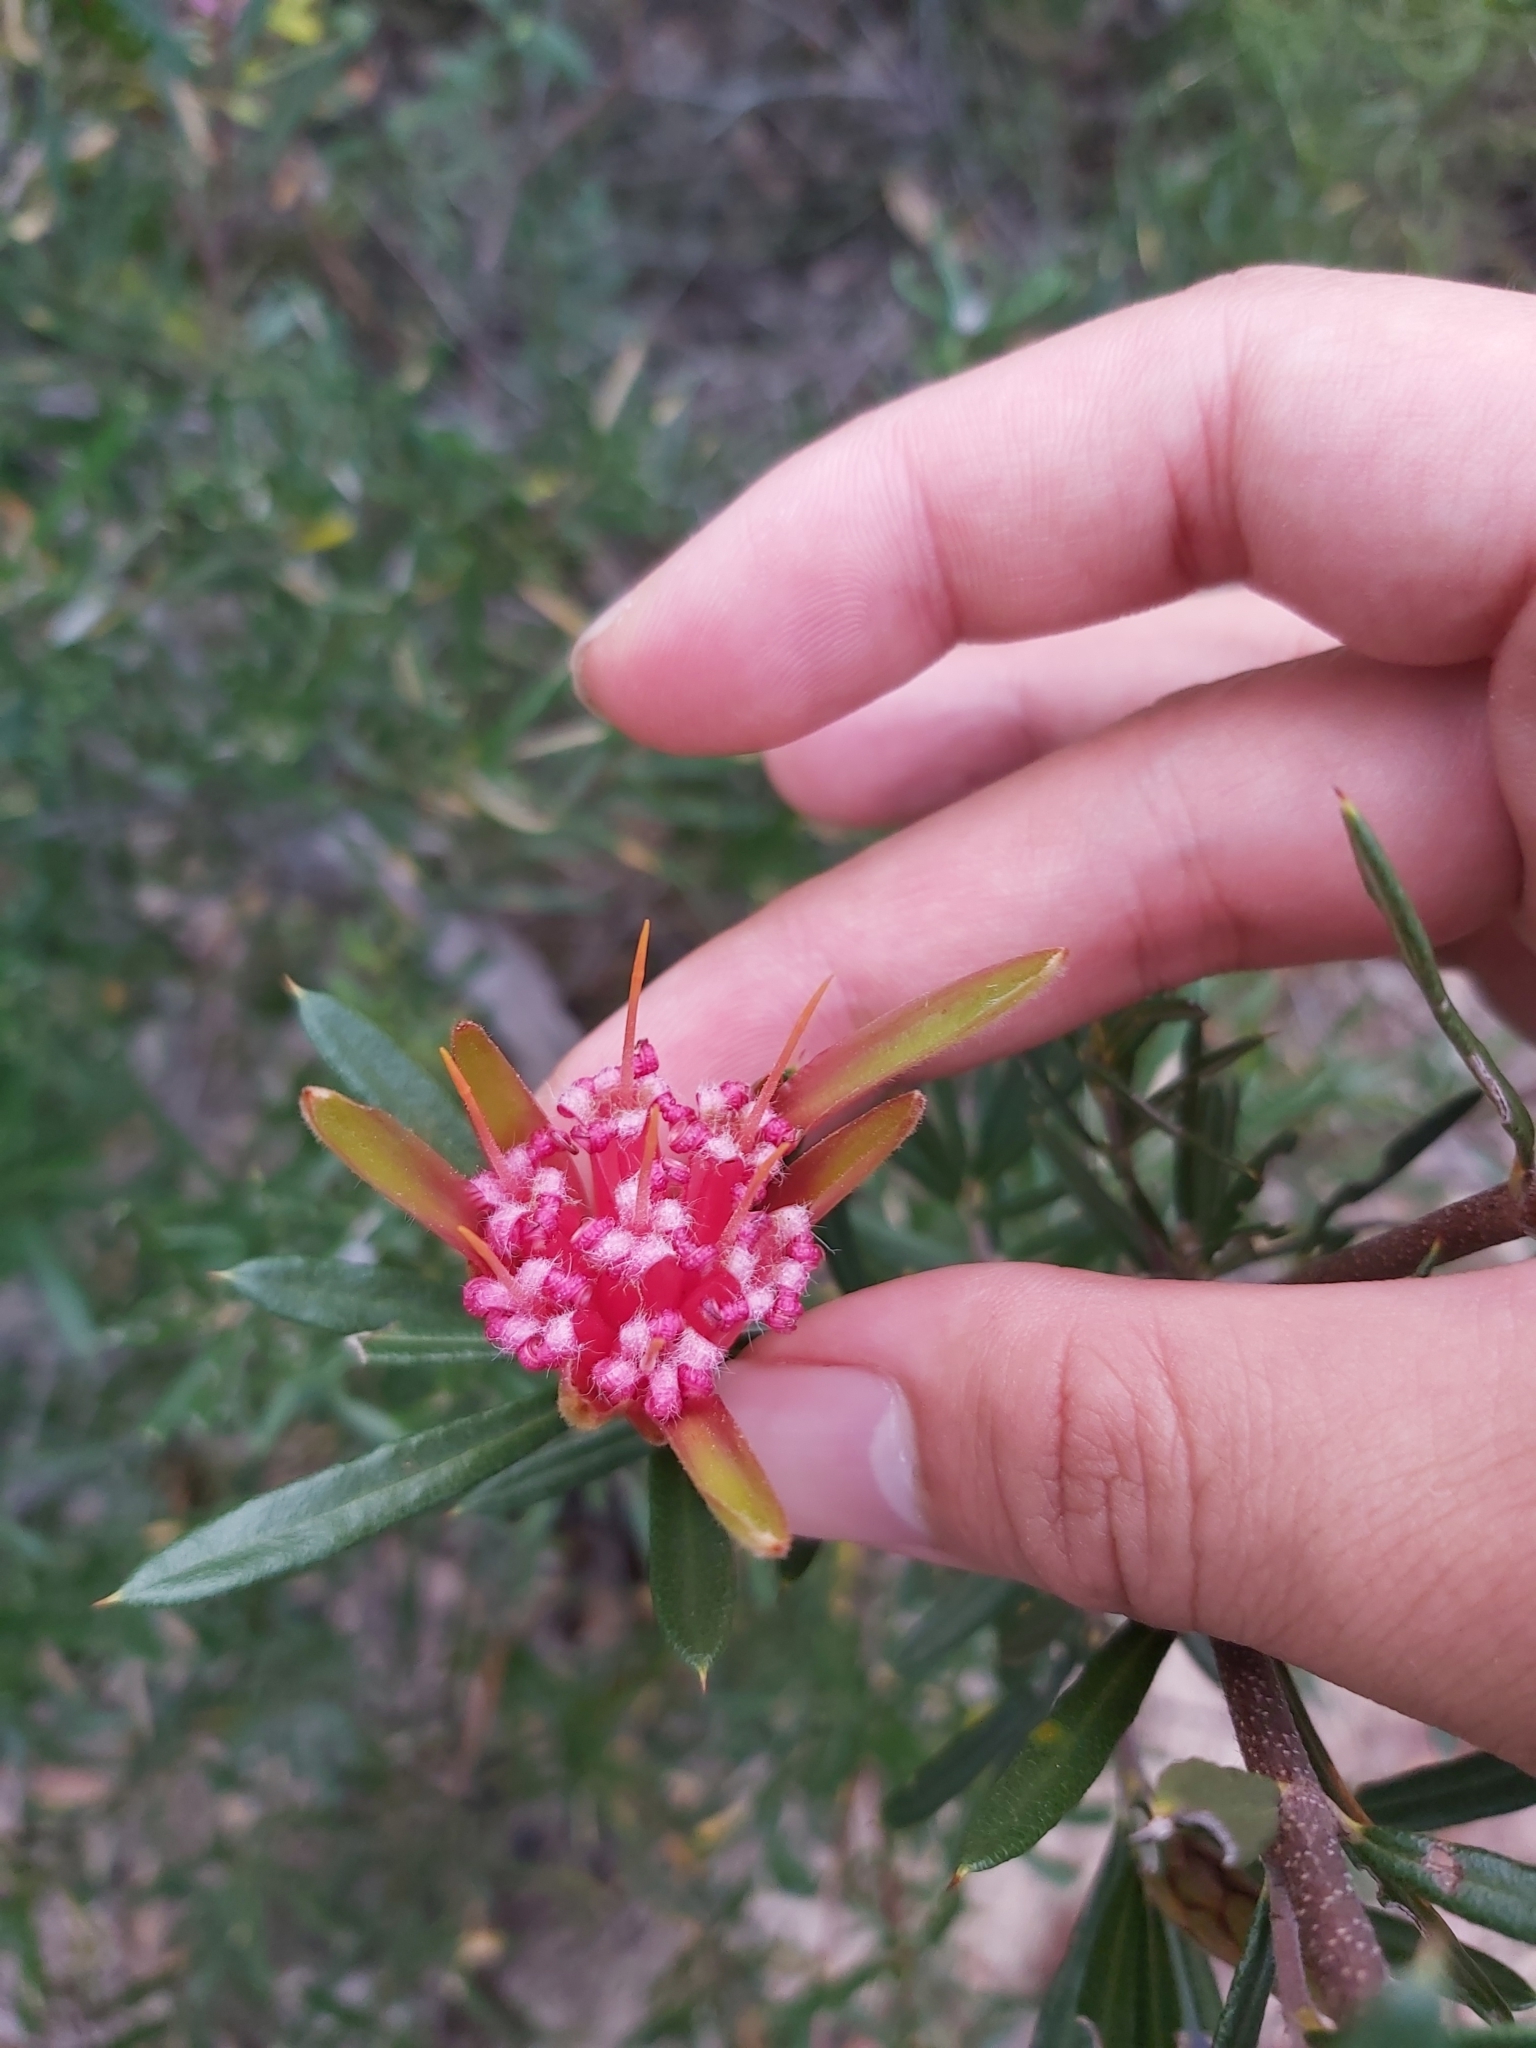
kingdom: Plantae
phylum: Tracheophyta
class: Magnoliopsida
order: Proteales
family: Proteaceae
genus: Lambertia
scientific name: Lambertia formosa
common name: Mountain-devil
